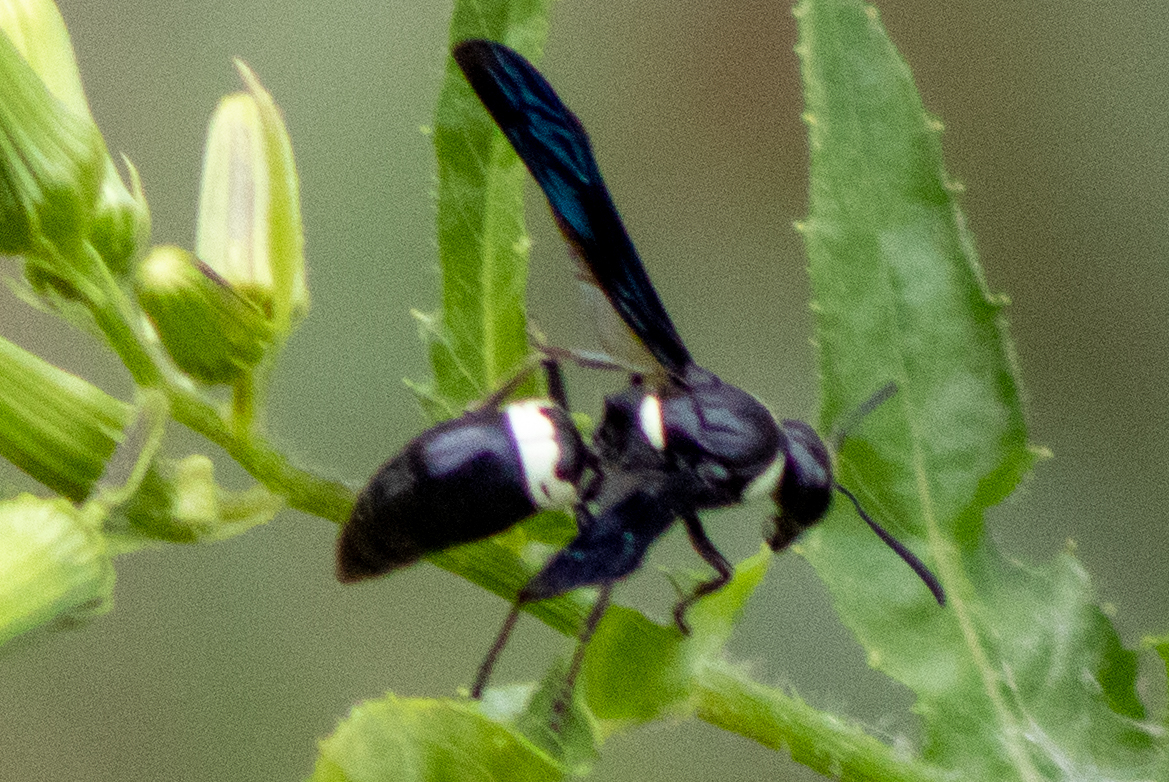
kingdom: Animalia
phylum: Arthropoda
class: Insecta
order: Hymenoptera
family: Eumenidae
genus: Monobia
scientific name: Monobia quadridens
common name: Four-toothed mason wasp
